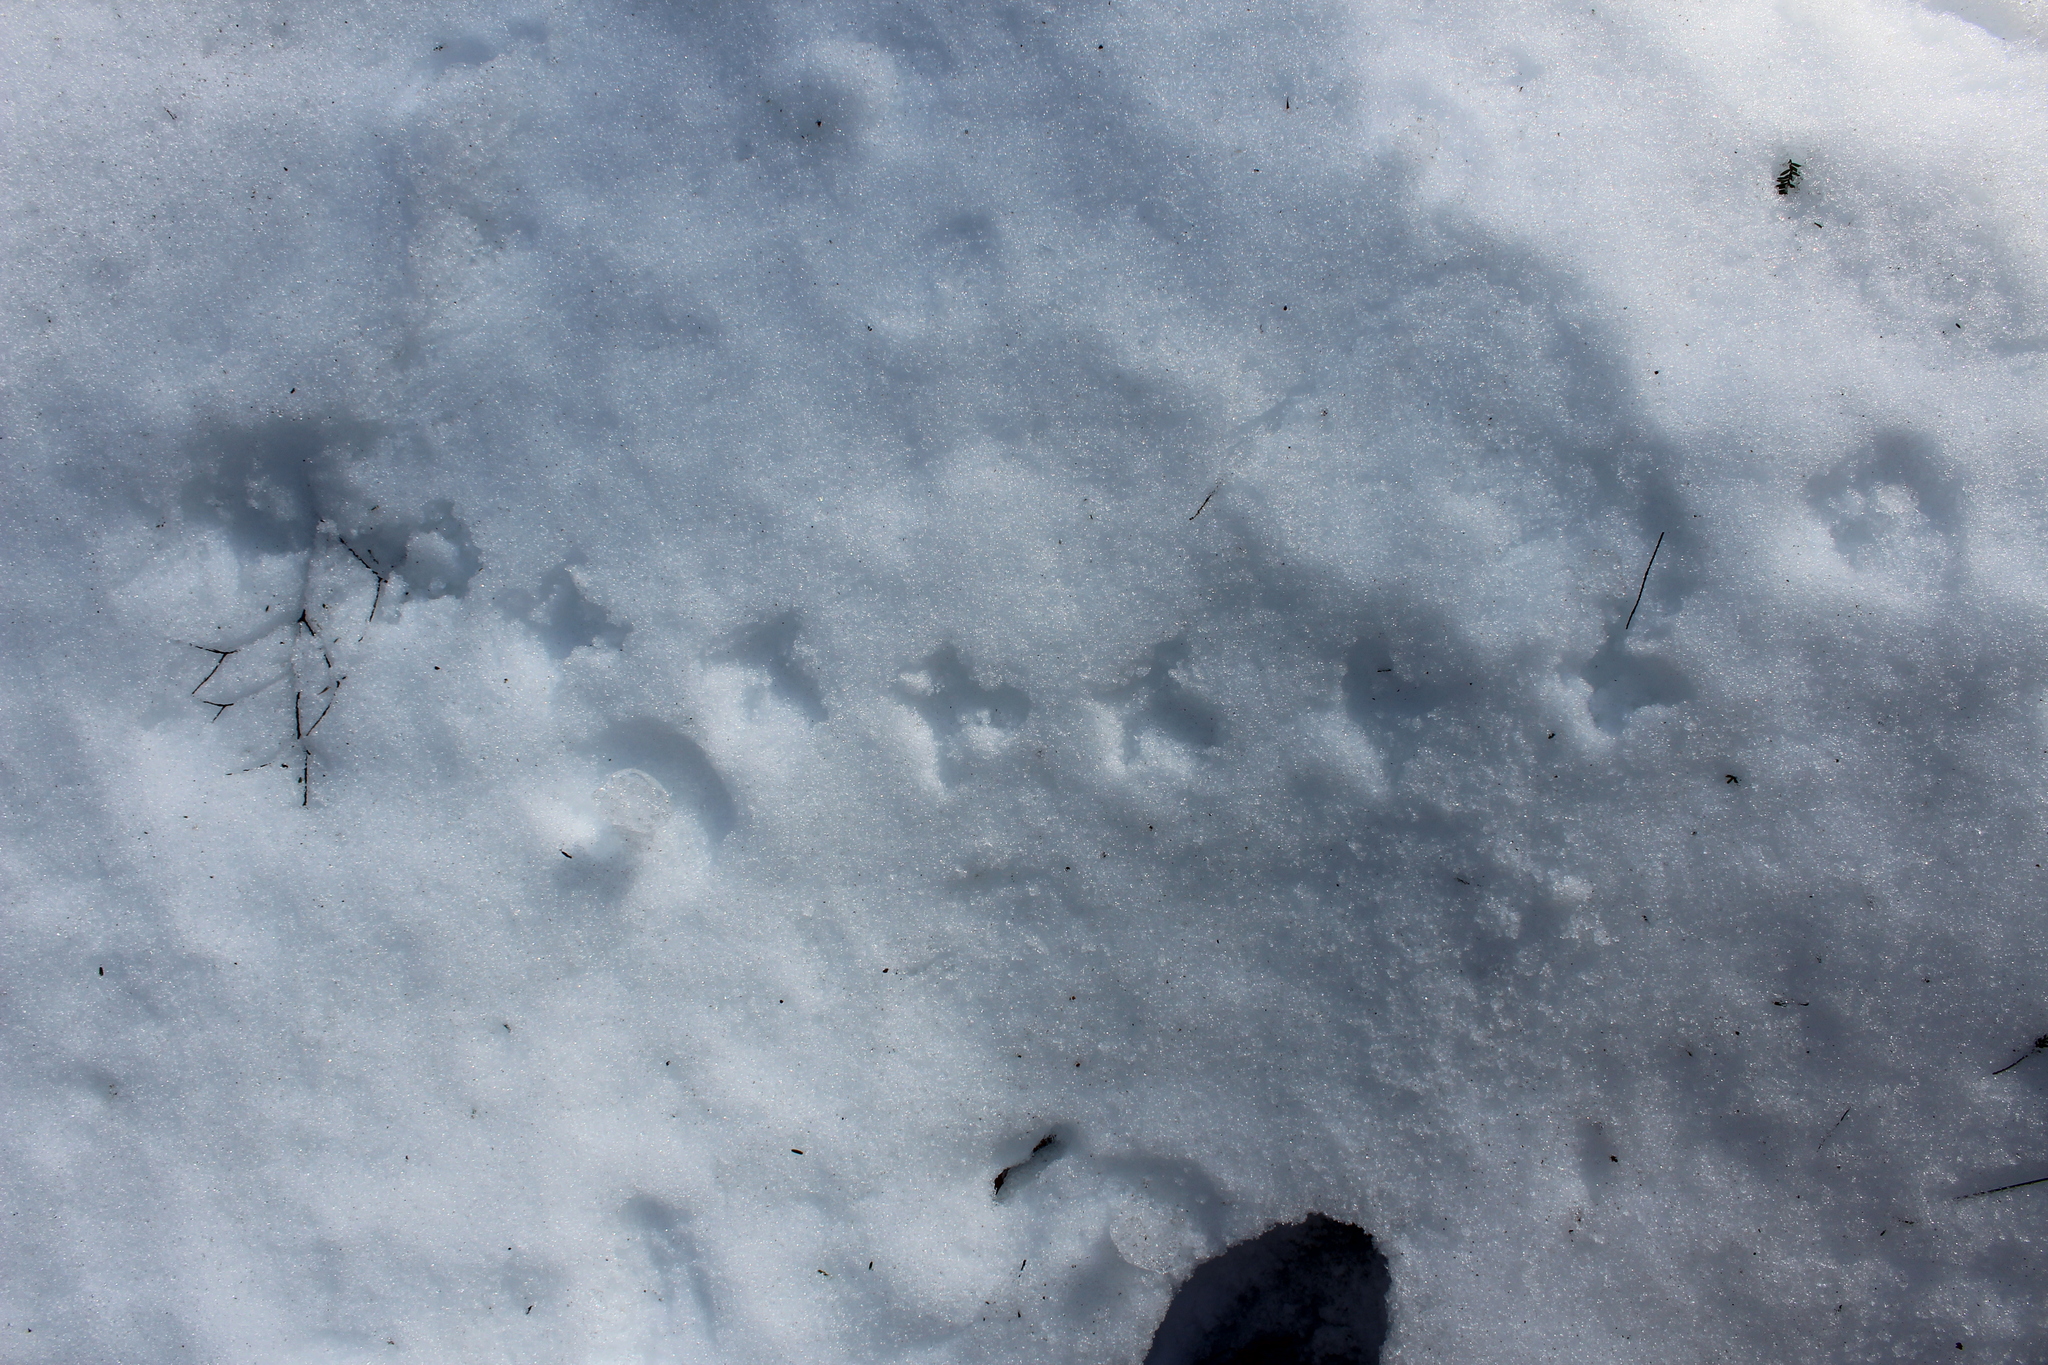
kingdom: Animalia
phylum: Chordata
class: Aves
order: Galliformes
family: Phasianidae
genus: Bonasa
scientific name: Bonasa umbellus
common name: Ruffed grouse
